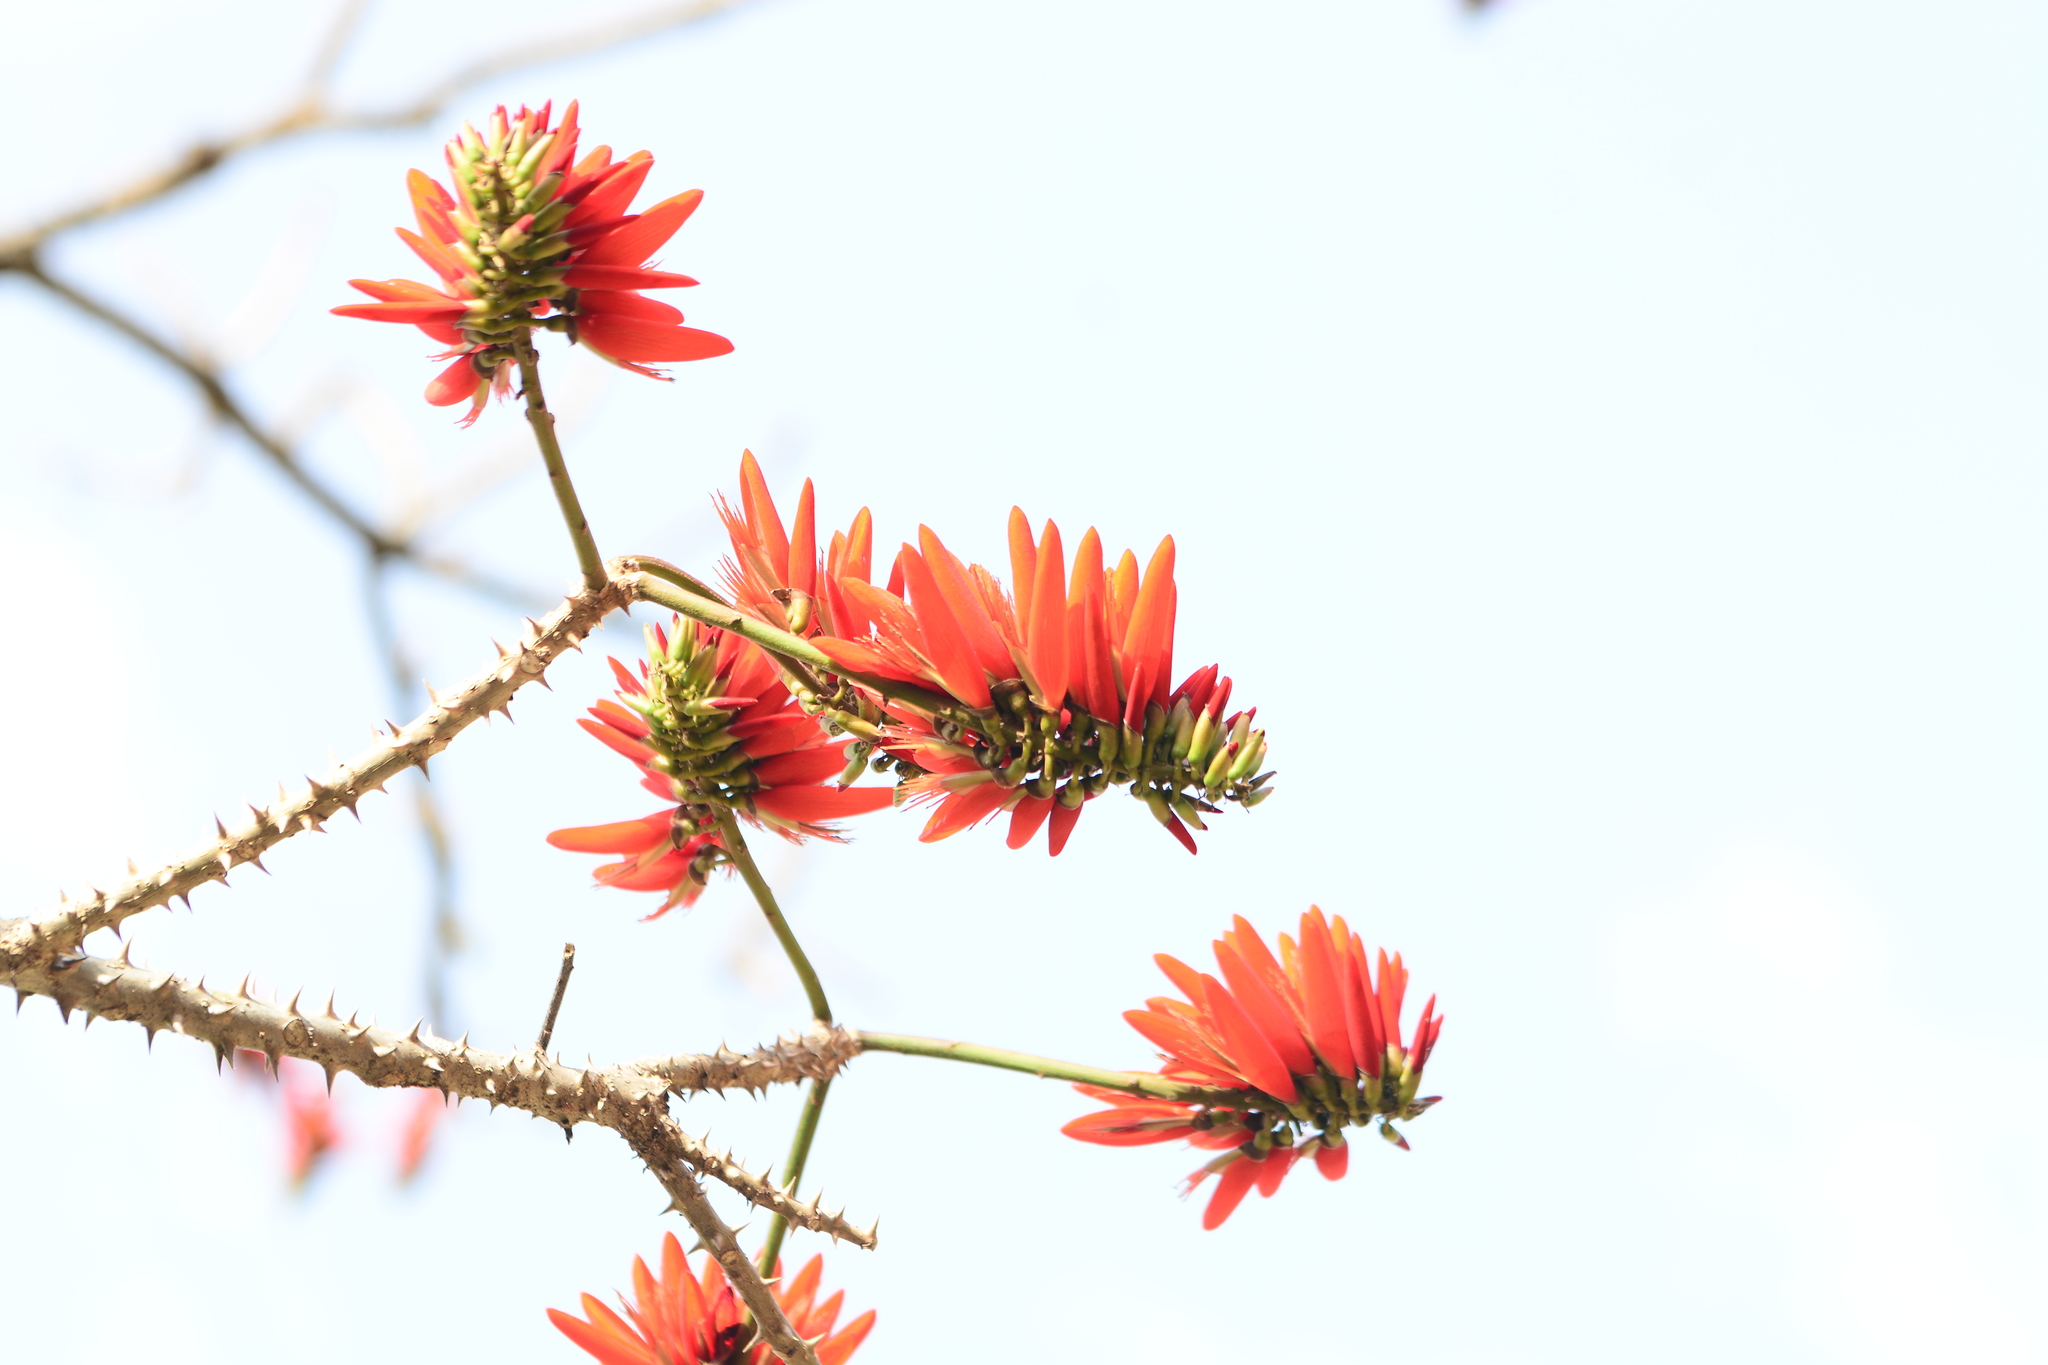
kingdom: Plantae
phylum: Tracheophyta
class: Magnoliopsida
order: Fabales
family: Fabaceae
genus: Erythrina
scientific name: Erythrina variegata
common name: Indian coral tree
